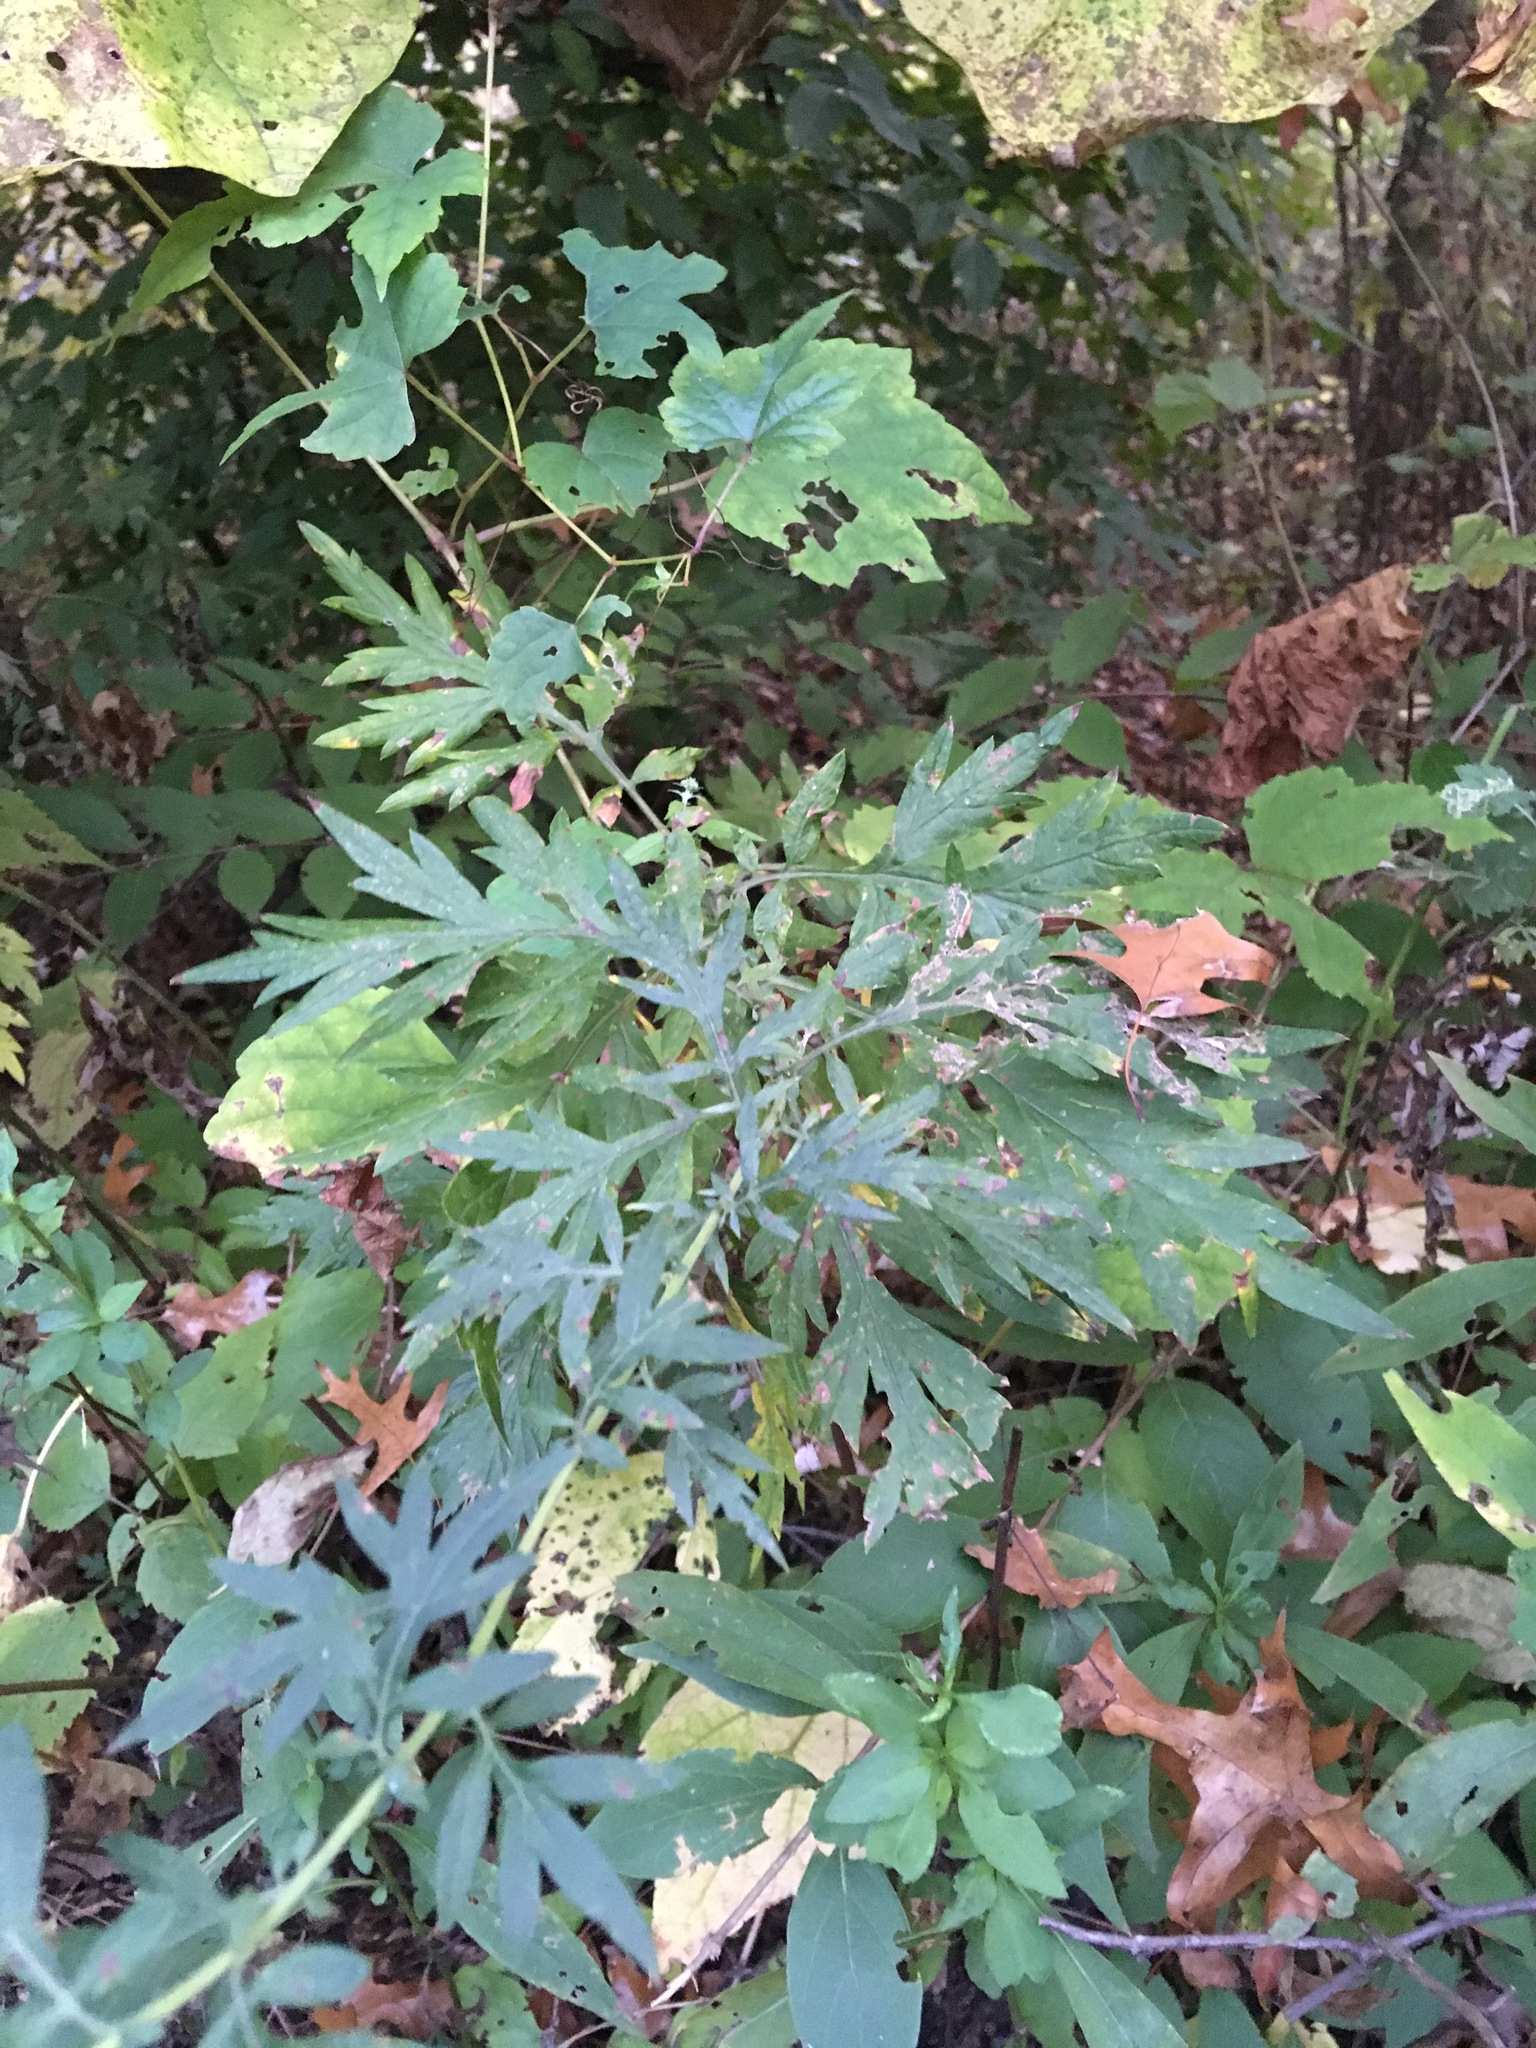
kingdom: Plantae
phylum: Tracheophyta
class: Magnoliopsida
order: Asterales
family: Asteraceae
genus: Artemisia
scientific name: Artemisia vulgaris
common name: Mugwort
